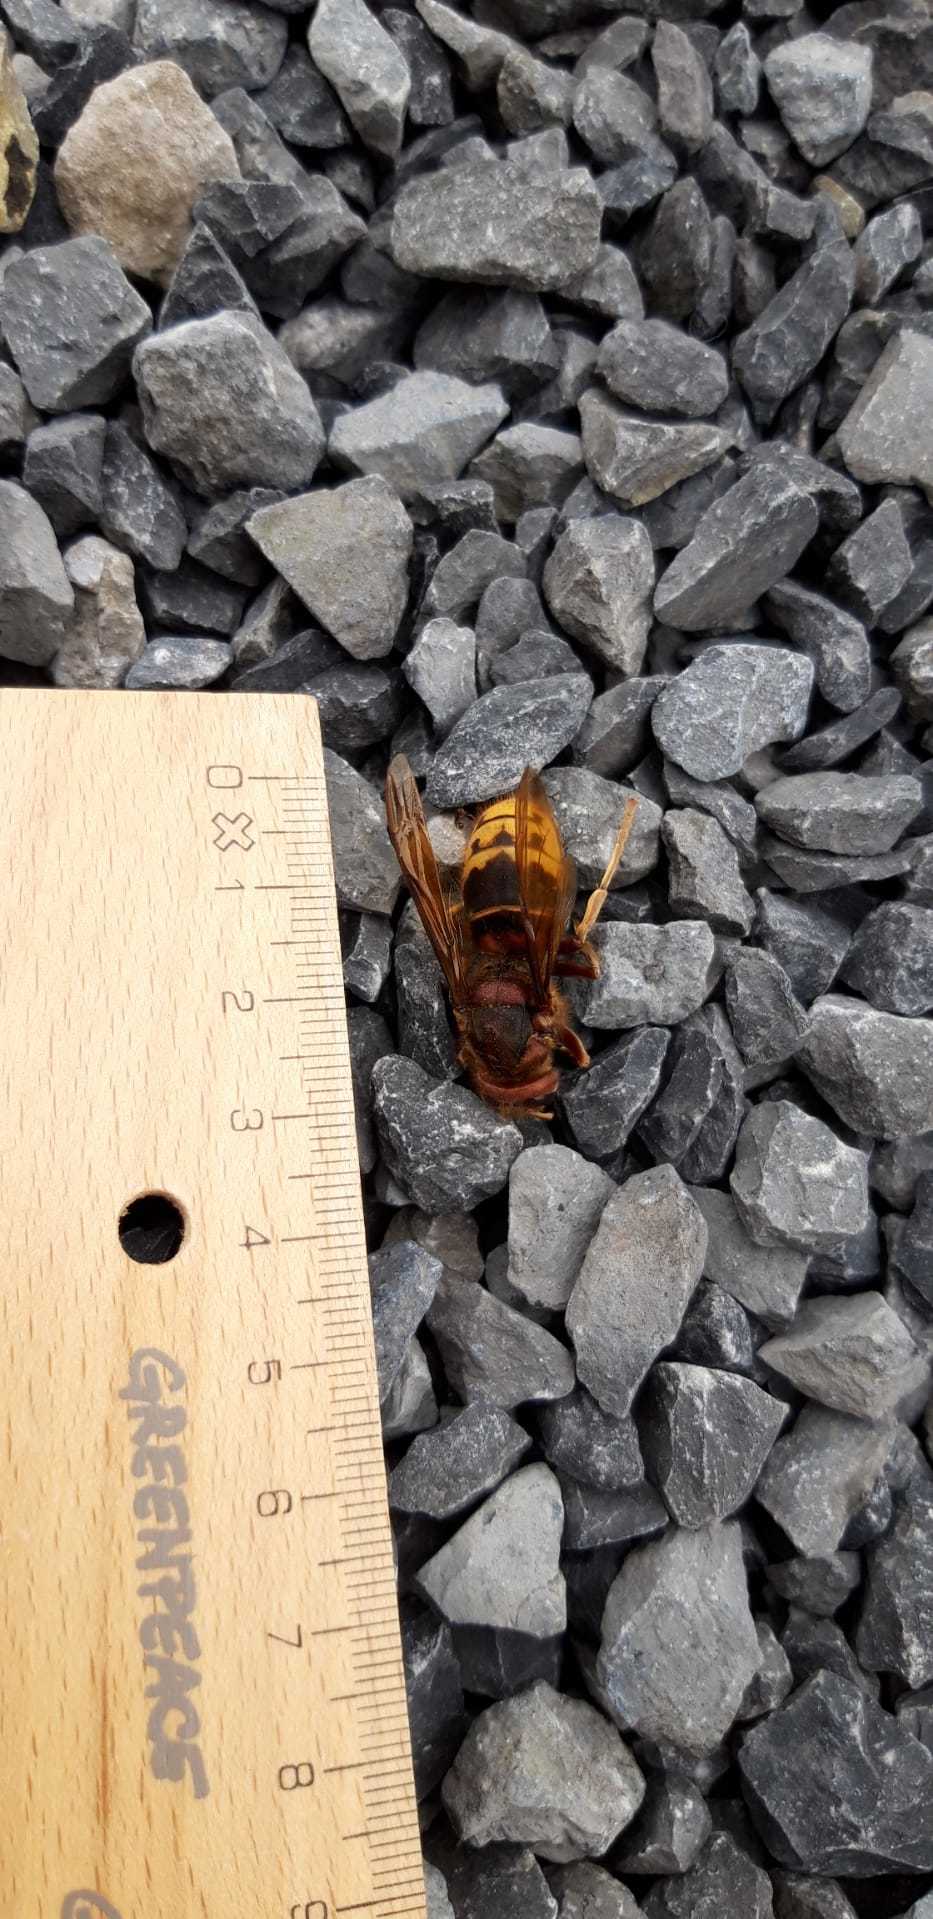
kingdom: Animalia
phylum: Arthropoda
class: Insecta
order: Hymenoptera
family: Vespidae
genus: Vespa
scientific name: Vespa crabro
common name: Hornet
